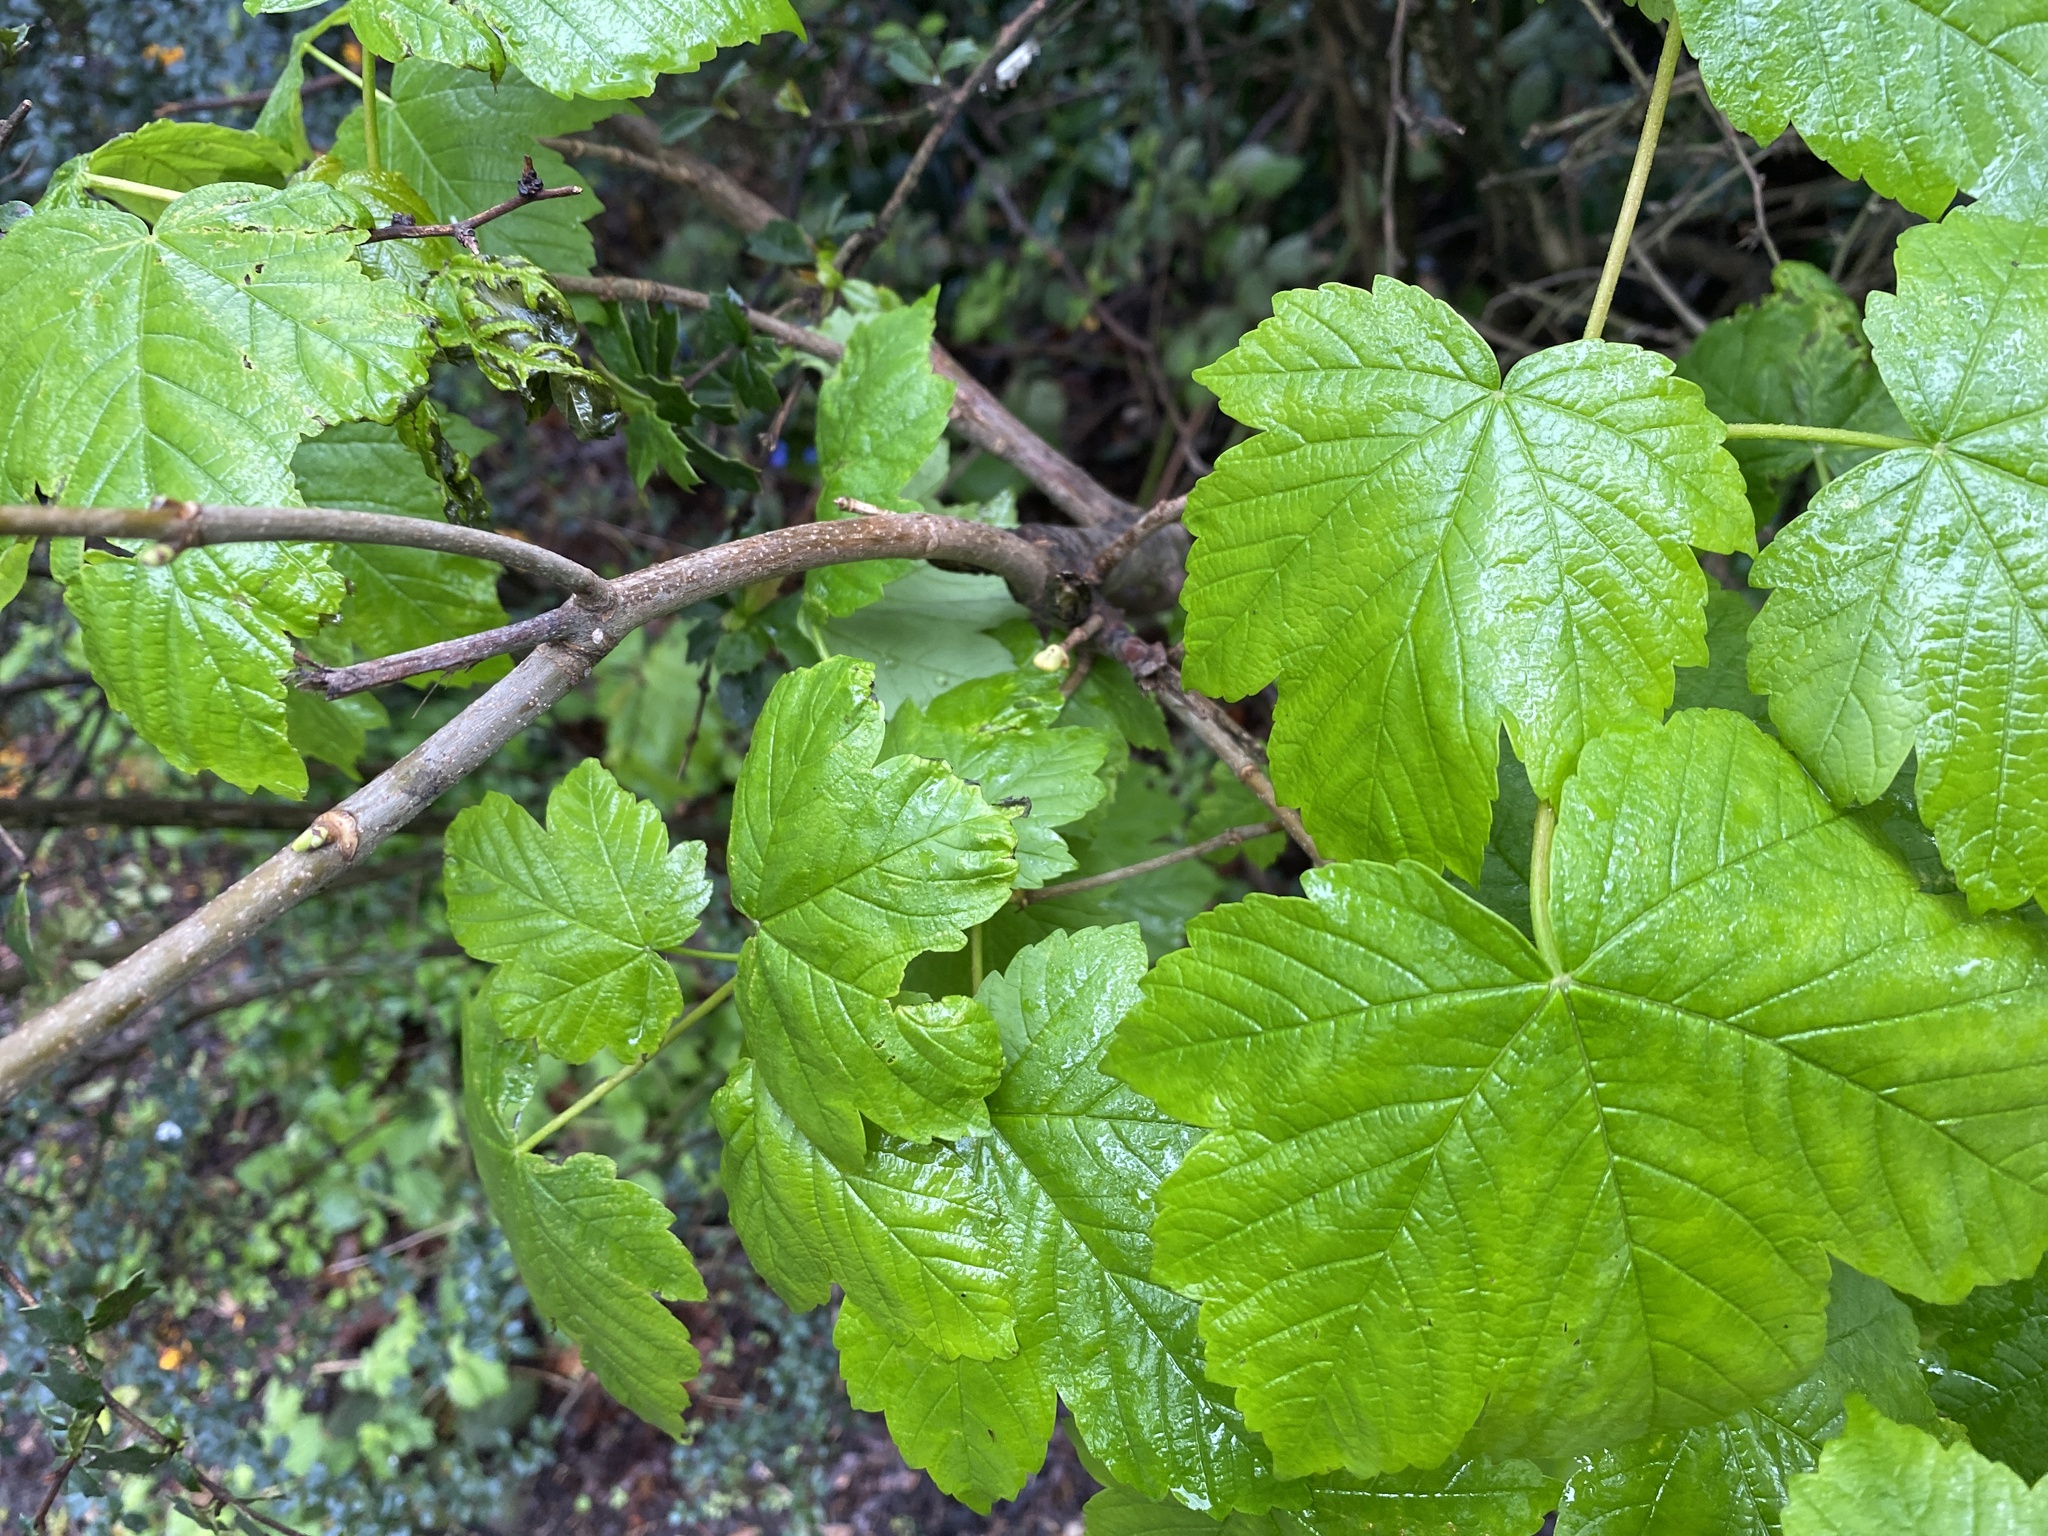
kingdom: Plantae
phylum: Tracheophyta
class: Magnoliopsida
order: Sapindales
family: Sapindaceae
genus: Acer
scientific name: Acer pseudoplatanus
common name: Sycamore
